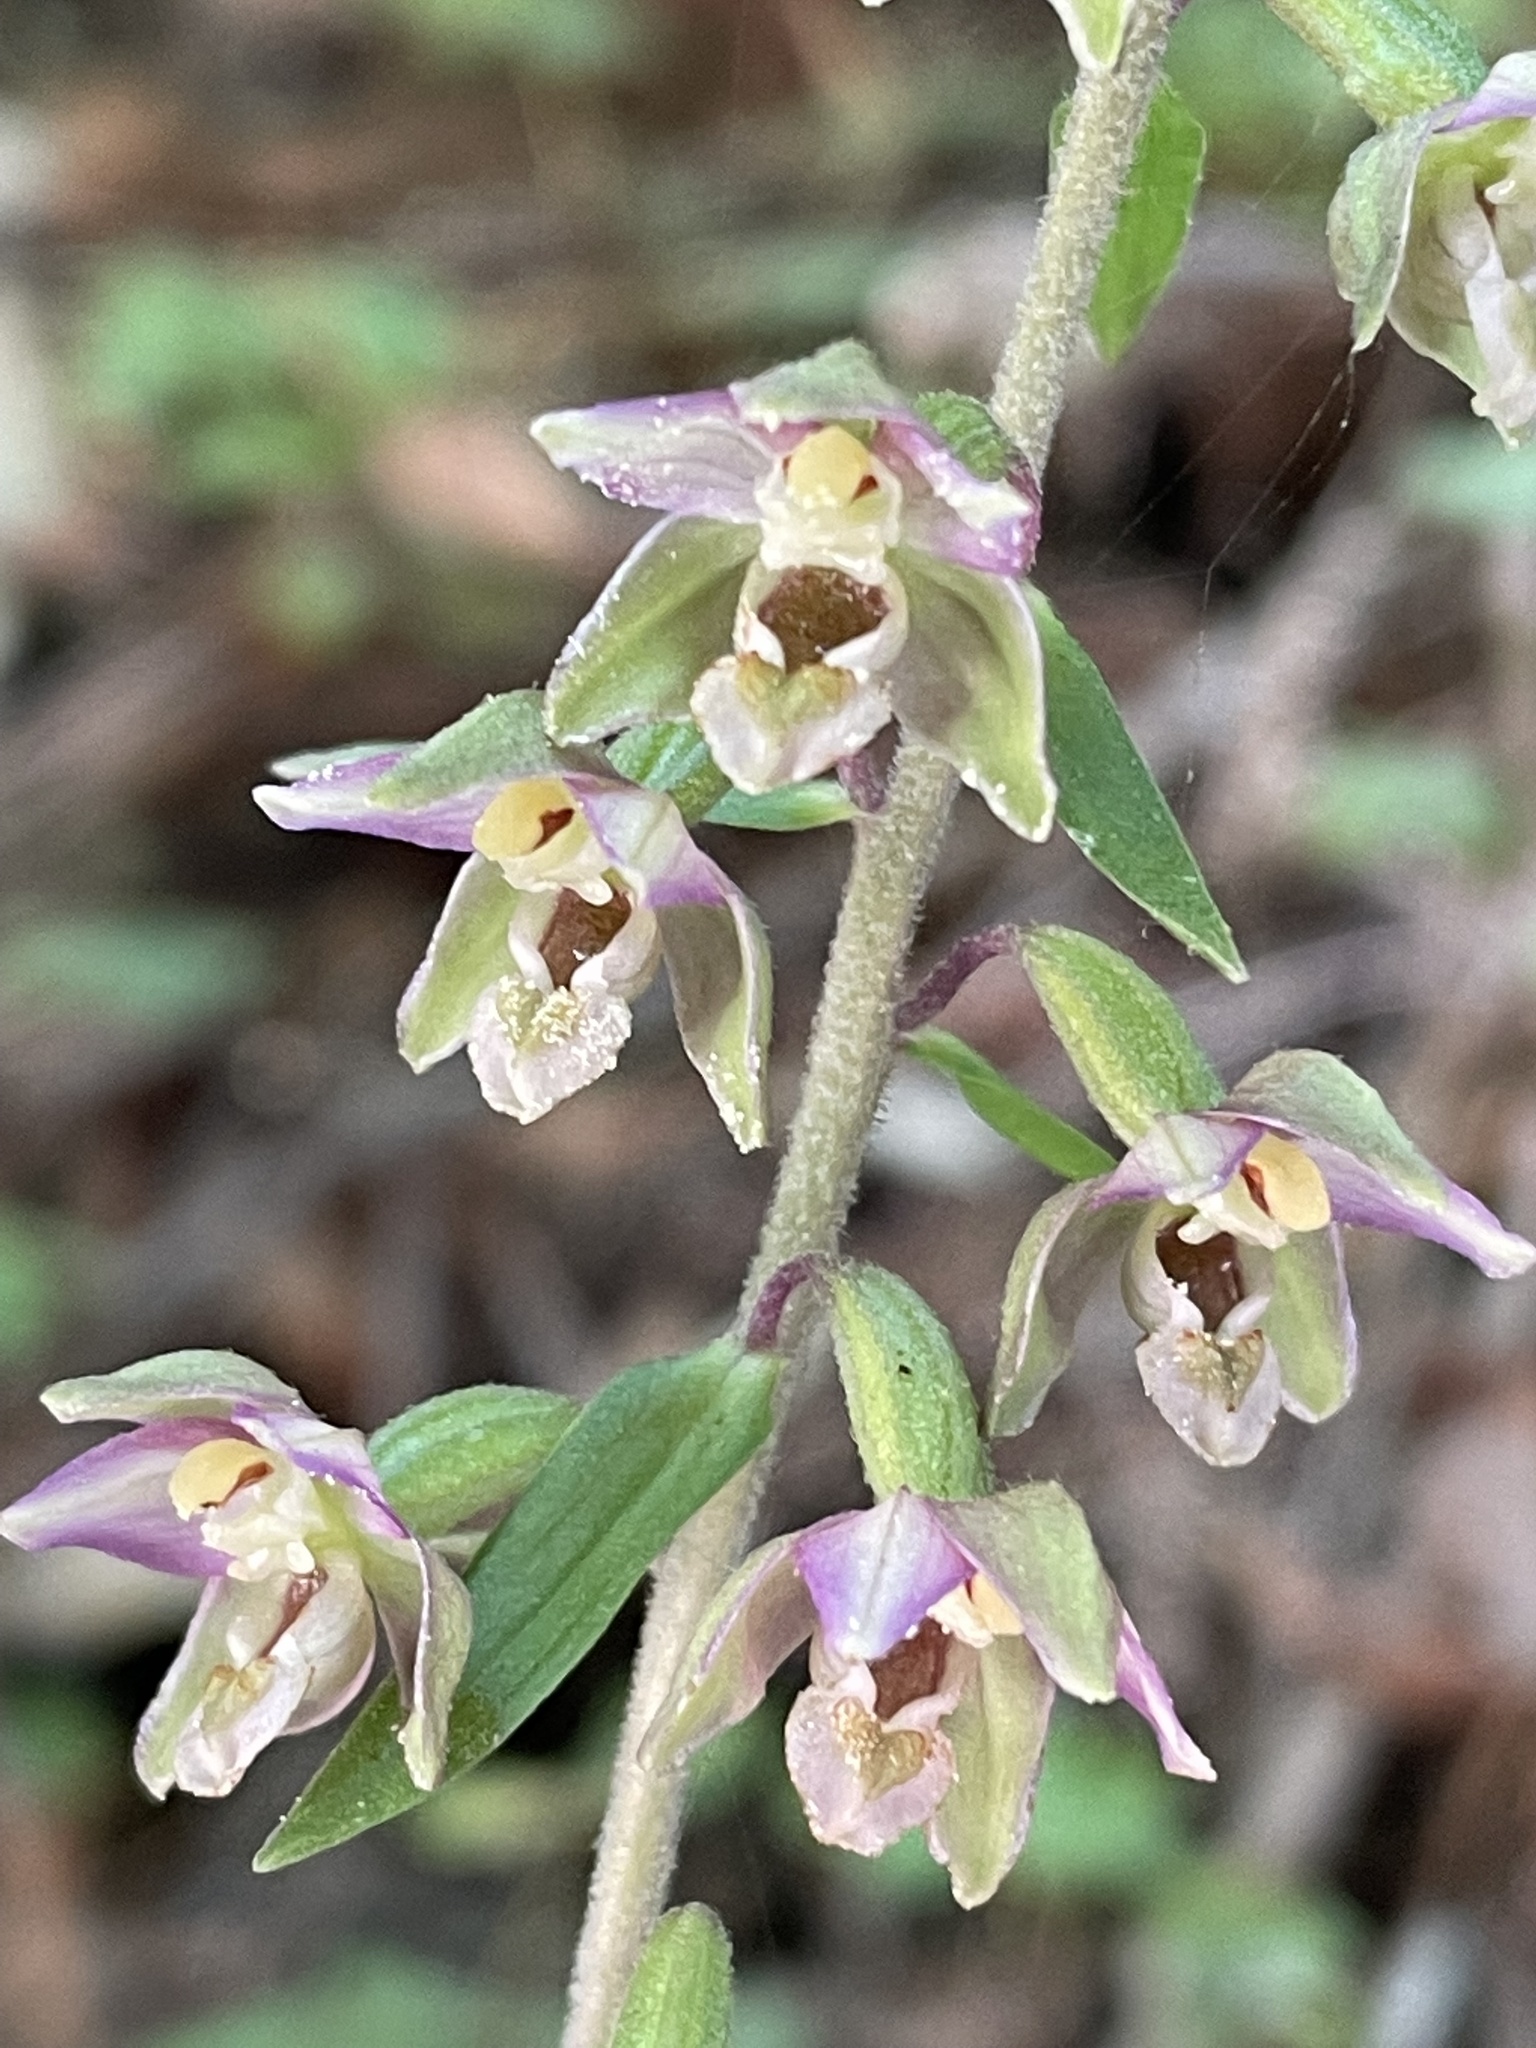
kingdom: Plantae
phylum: Tracheophyta
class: Liliopsida
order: Asparagales
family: Orchidaceae
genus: Epipactis
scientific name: Epipactis helleborine
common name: Broad-leaved helleborine
